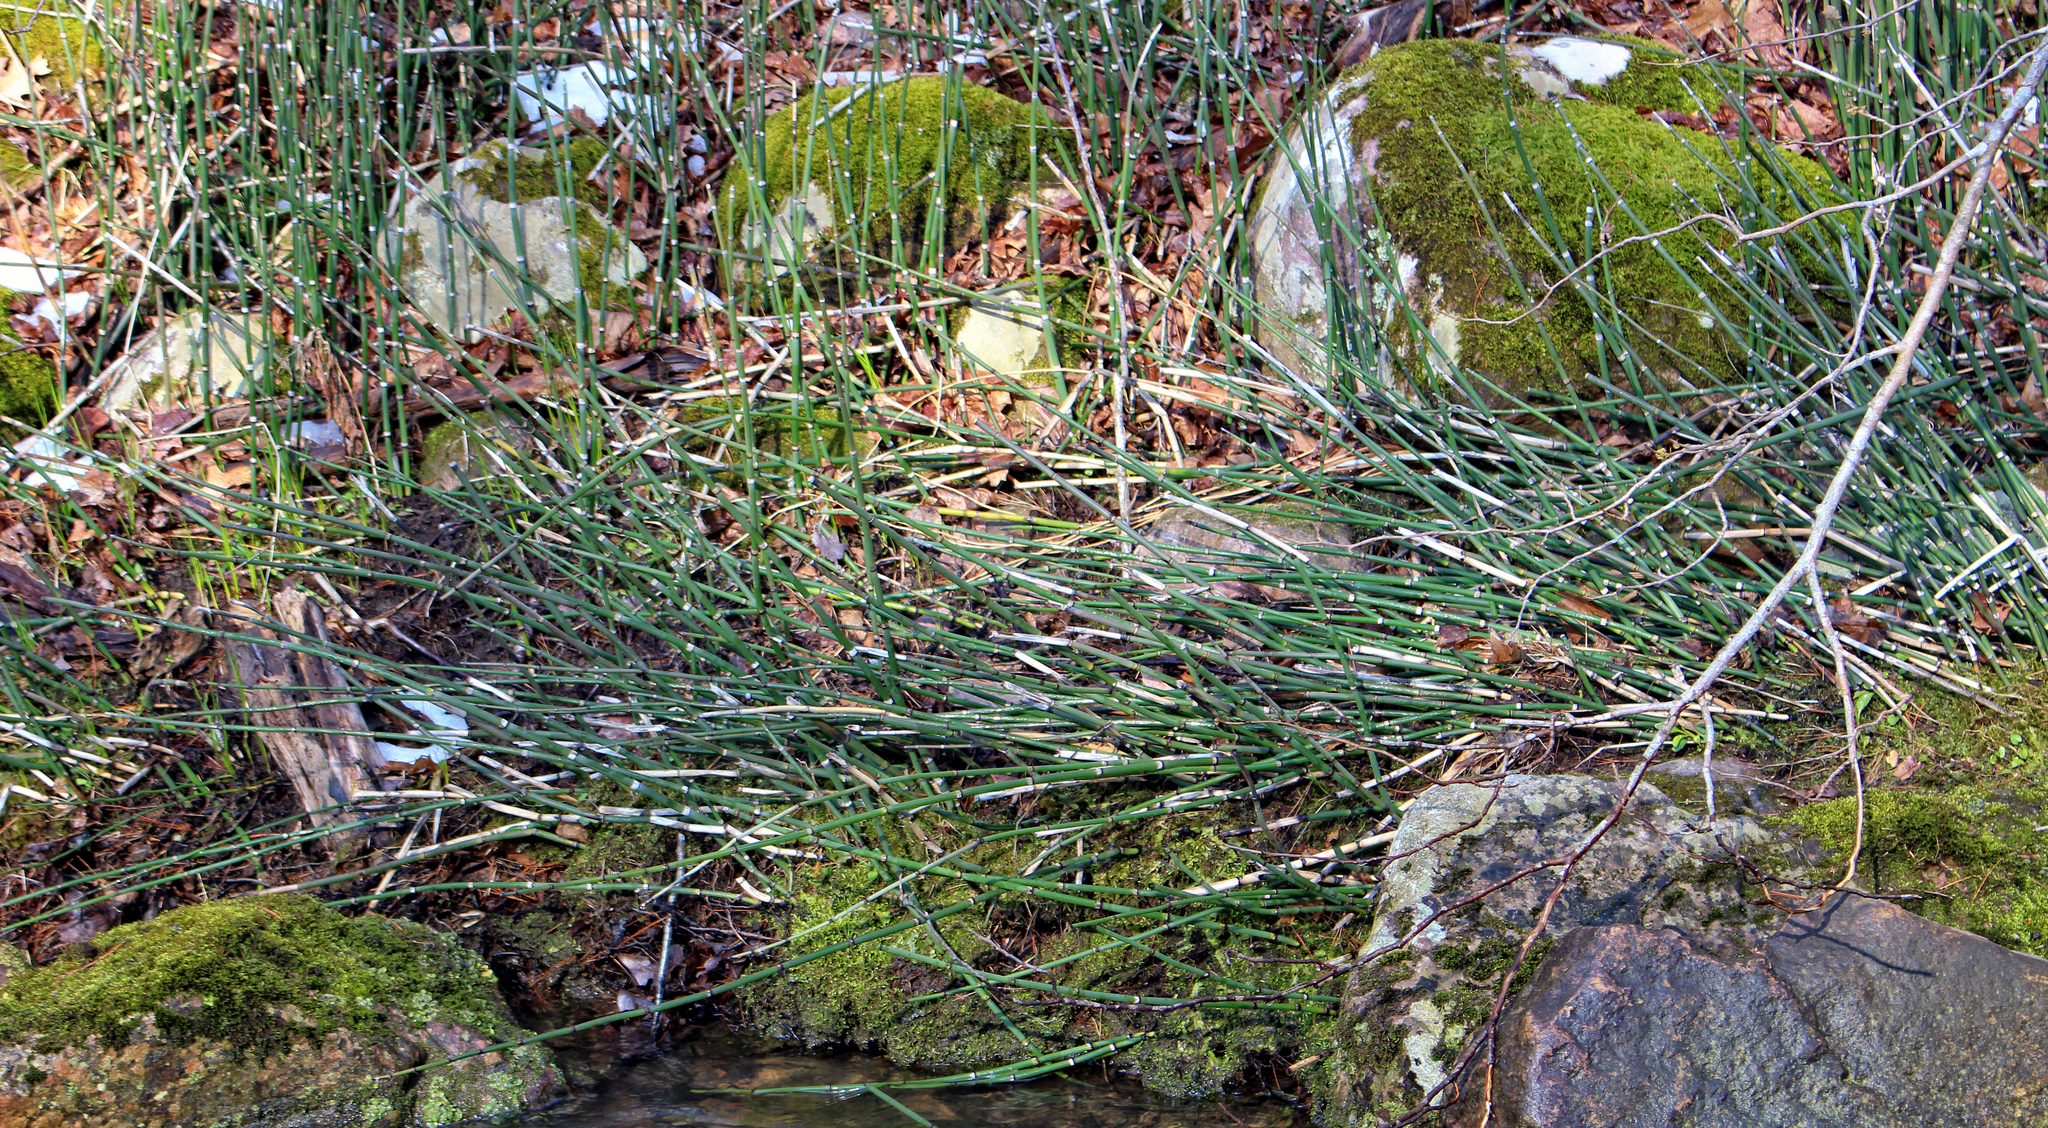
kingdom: Plantae
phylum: Tracheophyta
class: Polypodiopsida
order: Equisetales
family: Equisetaceae
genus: Equisetum
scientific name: Equisetum hyemale
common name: Rough horsetail
